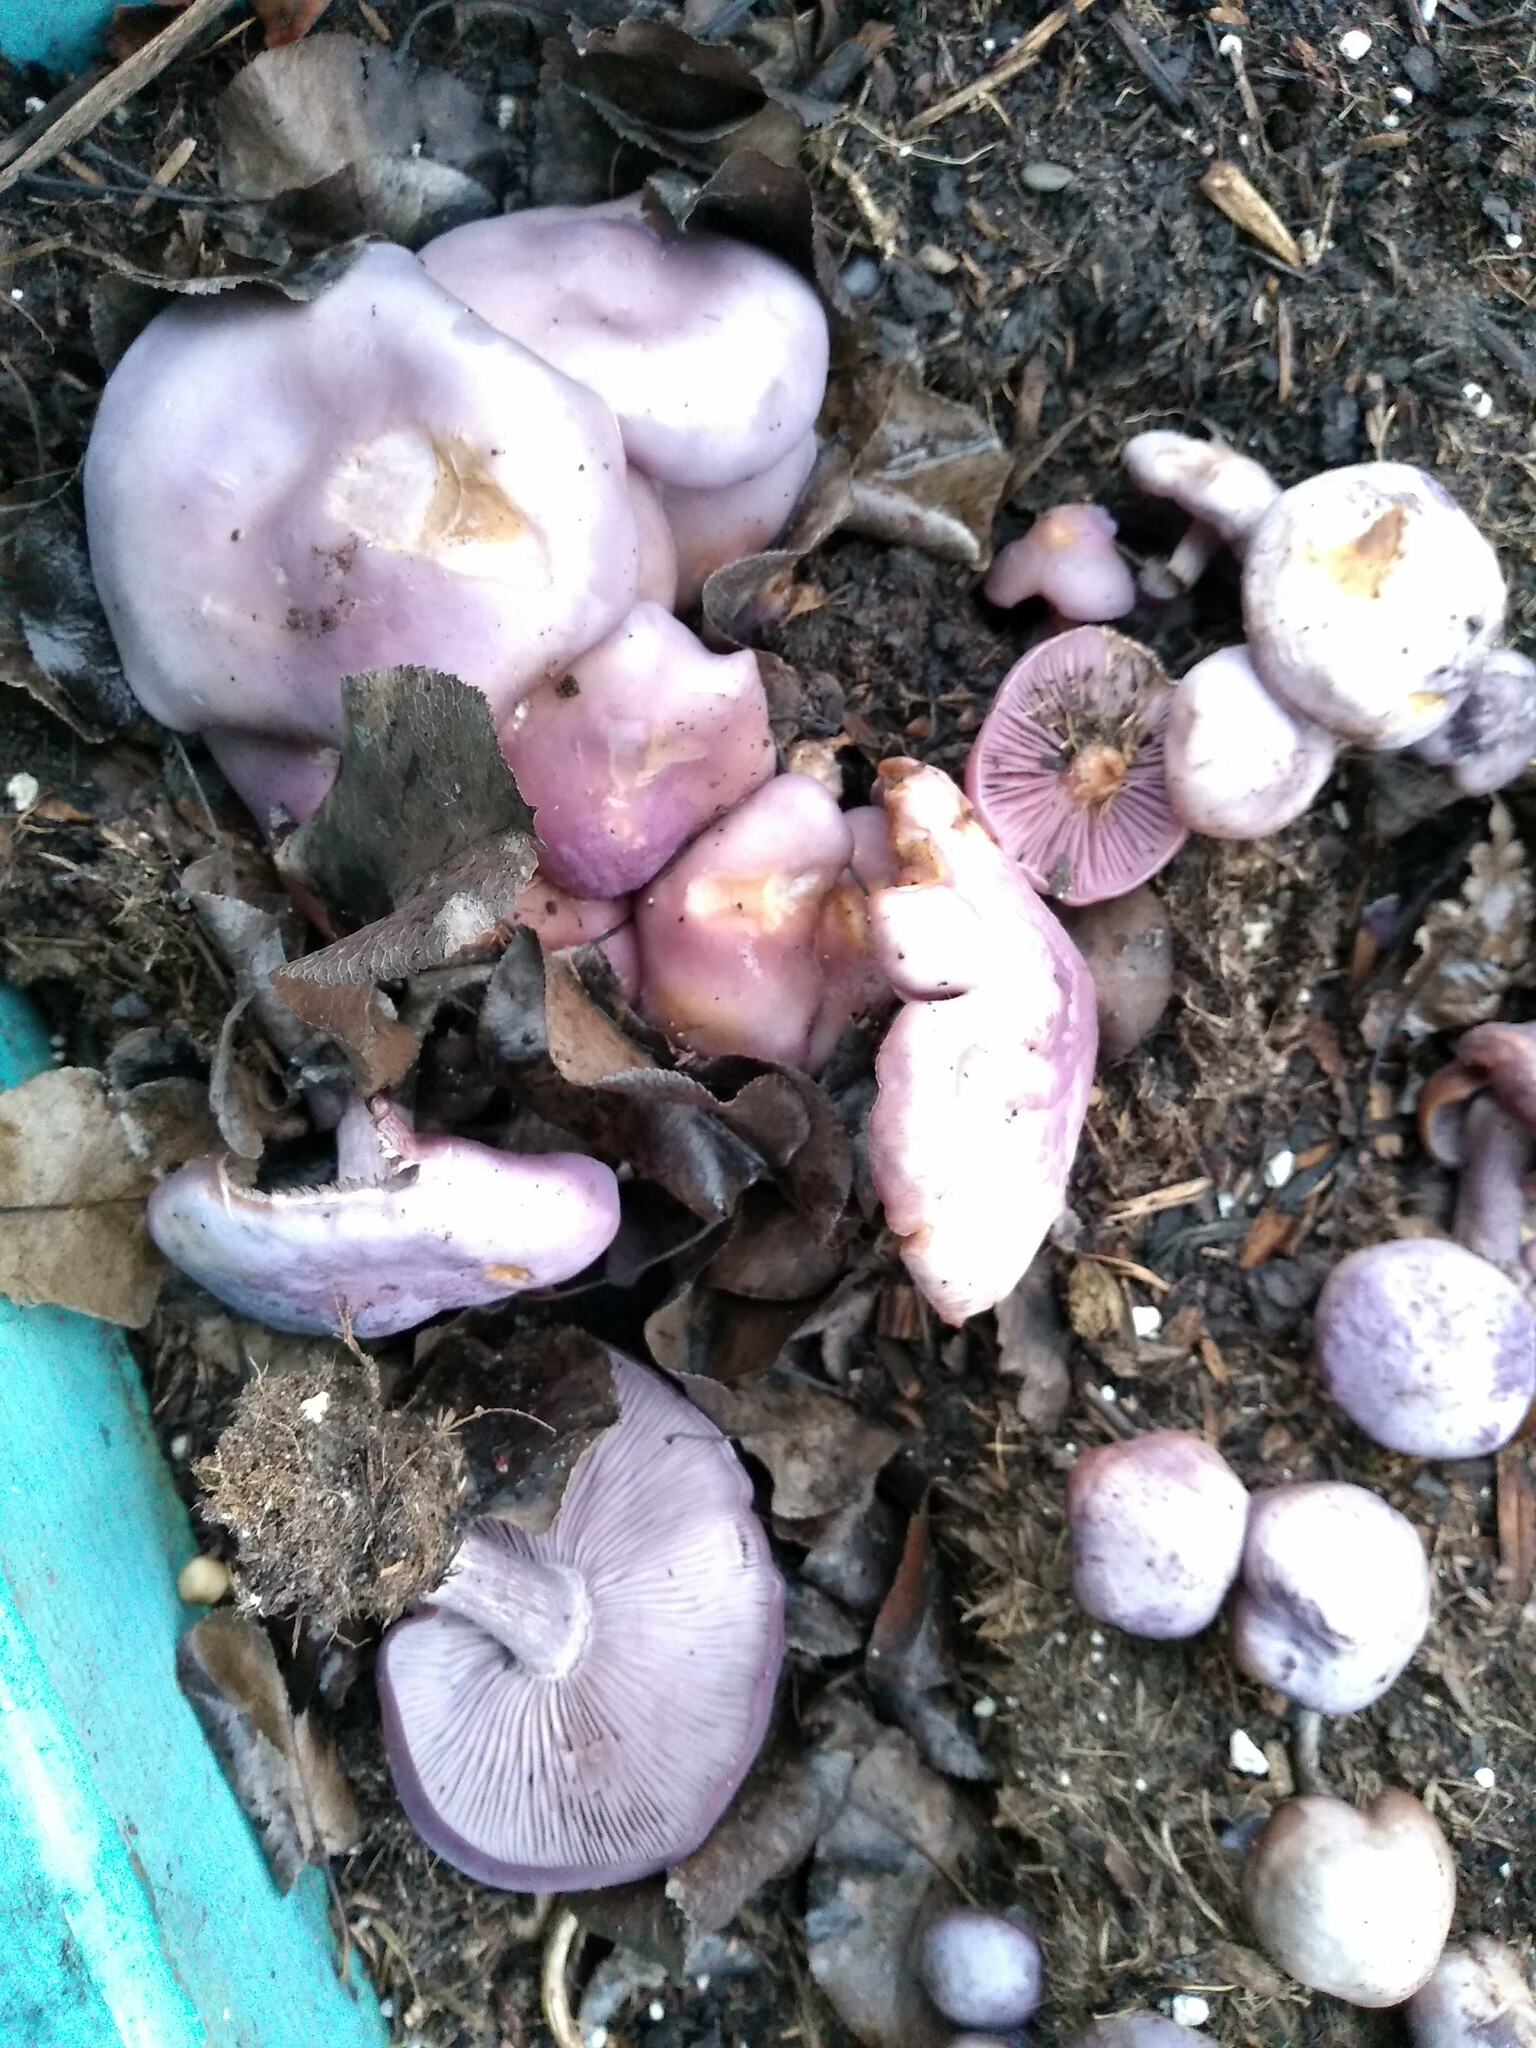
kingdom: Fungi
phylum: Basidiomycota
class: Agaricomycetes
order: Agaricales
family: Tricholomataceae
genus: Collybia
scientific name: Collybia
